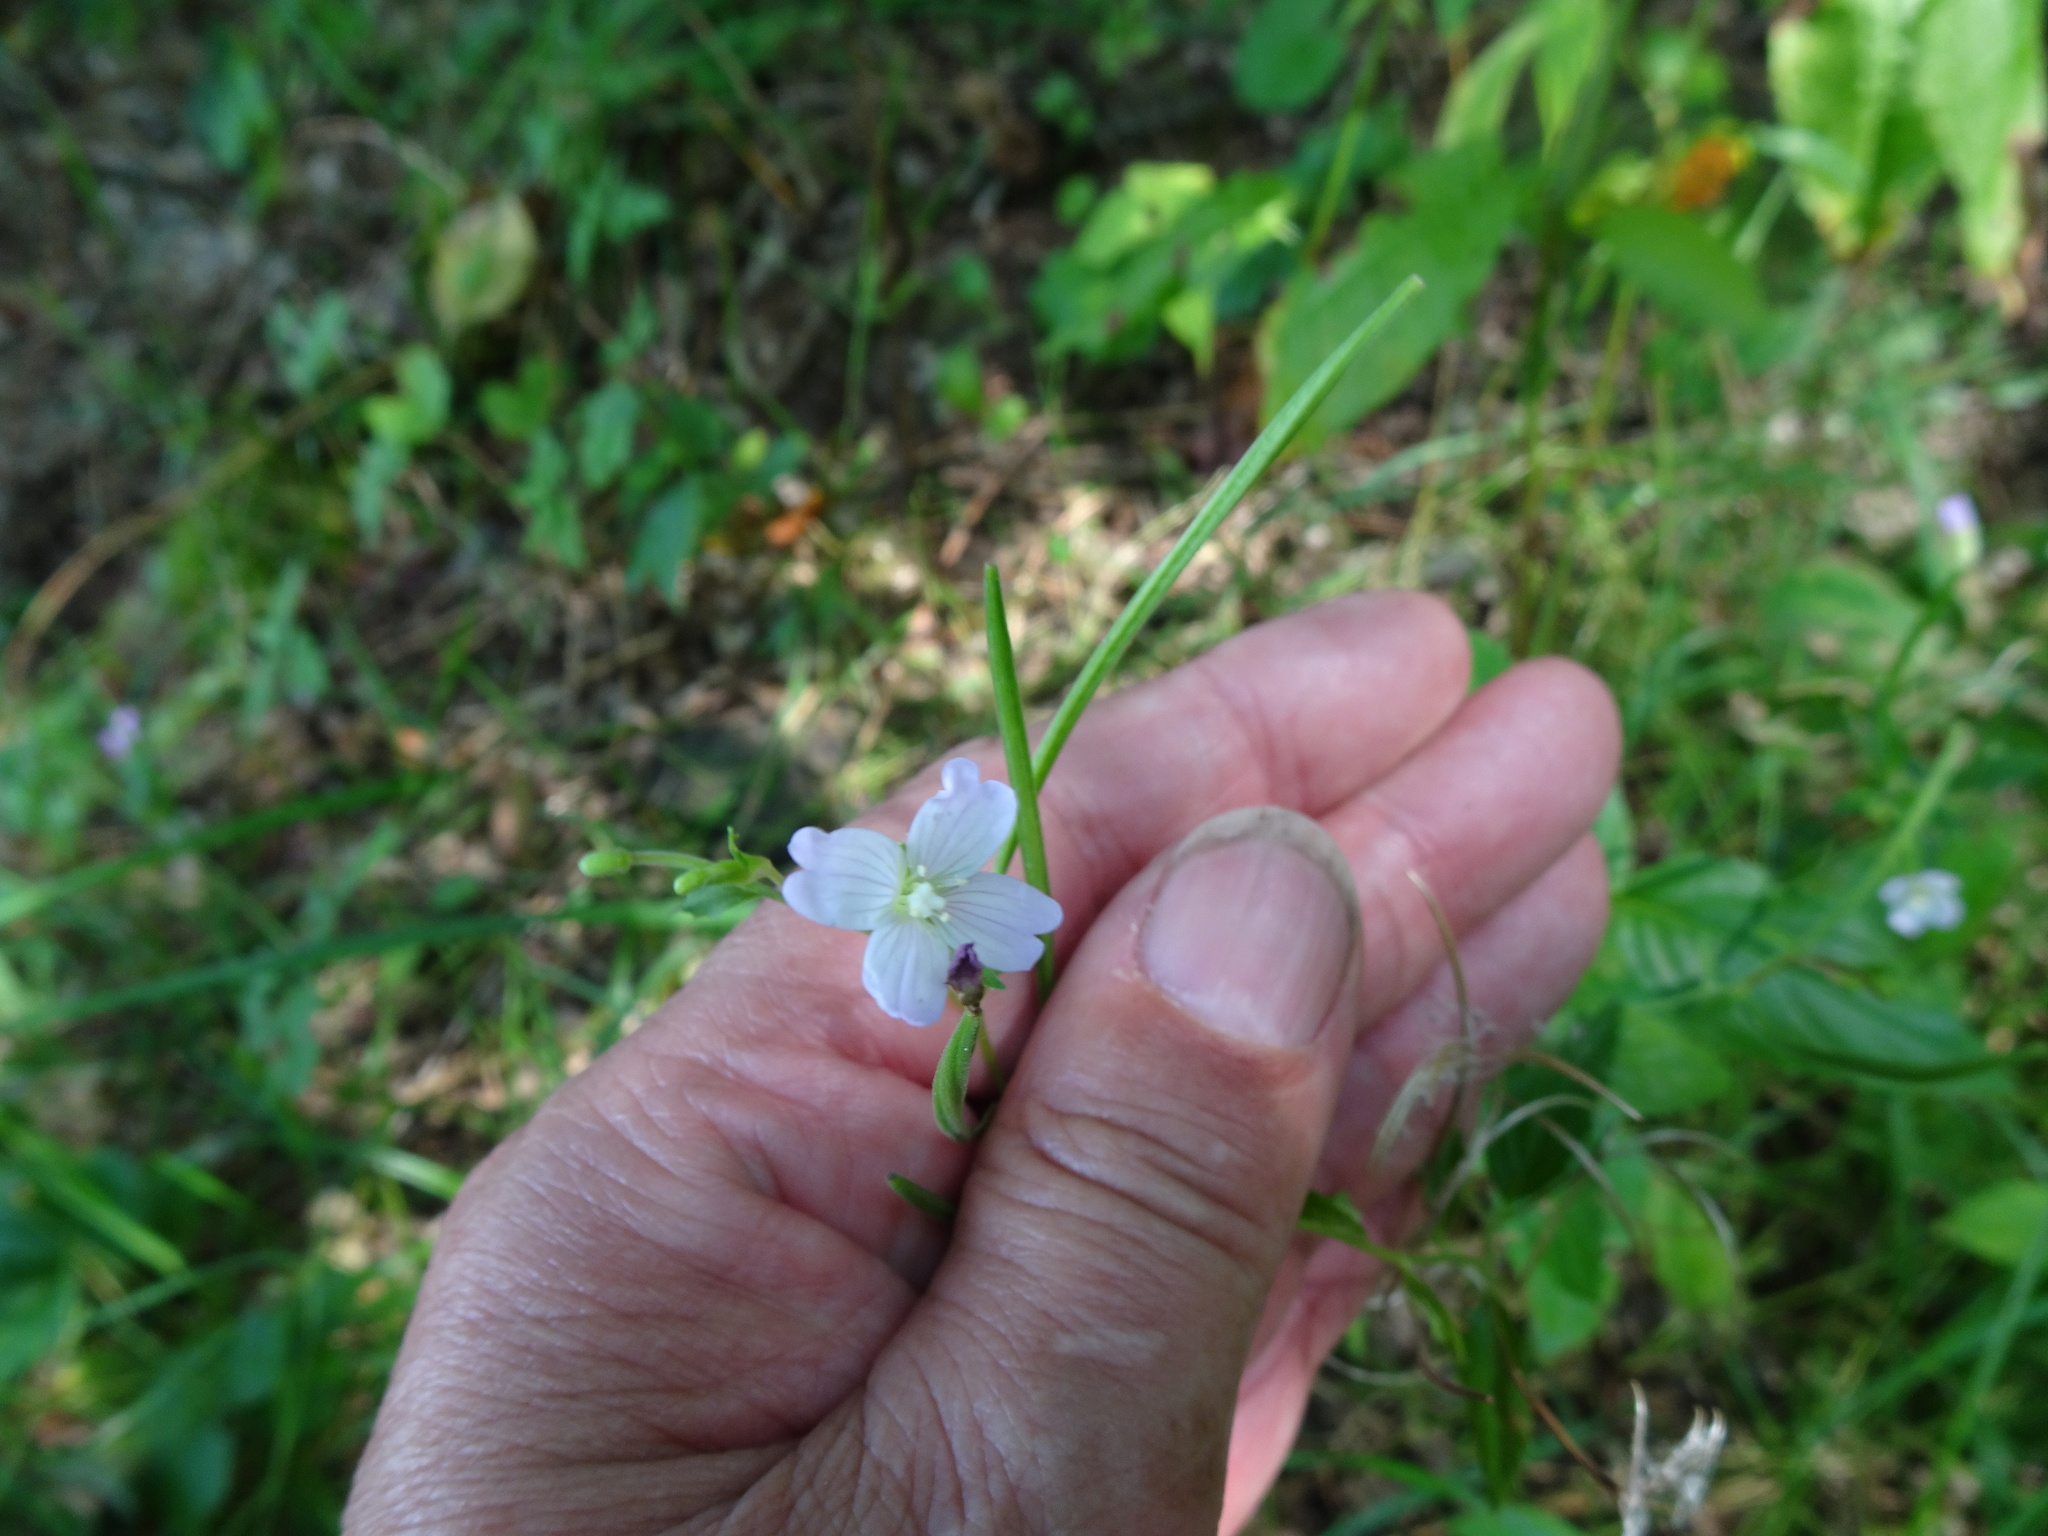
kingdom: Plantae
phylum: Tracheophyta
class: Magnoliopsida
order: Myrtales
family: Onagraceae
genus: Epilobium
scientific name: Epilobium montanum
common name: Broad-leaved willowherb
